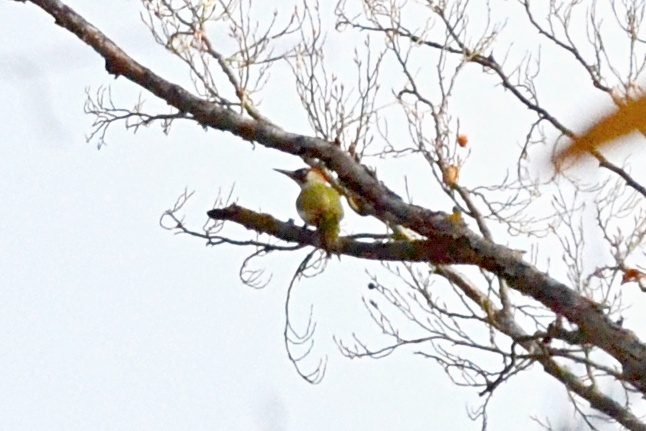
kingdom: Animalia
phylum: Chordata
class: Aves
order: Piciformes
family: Picidae
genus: Picus
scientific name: Picus viridis
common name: European green woodpecker
